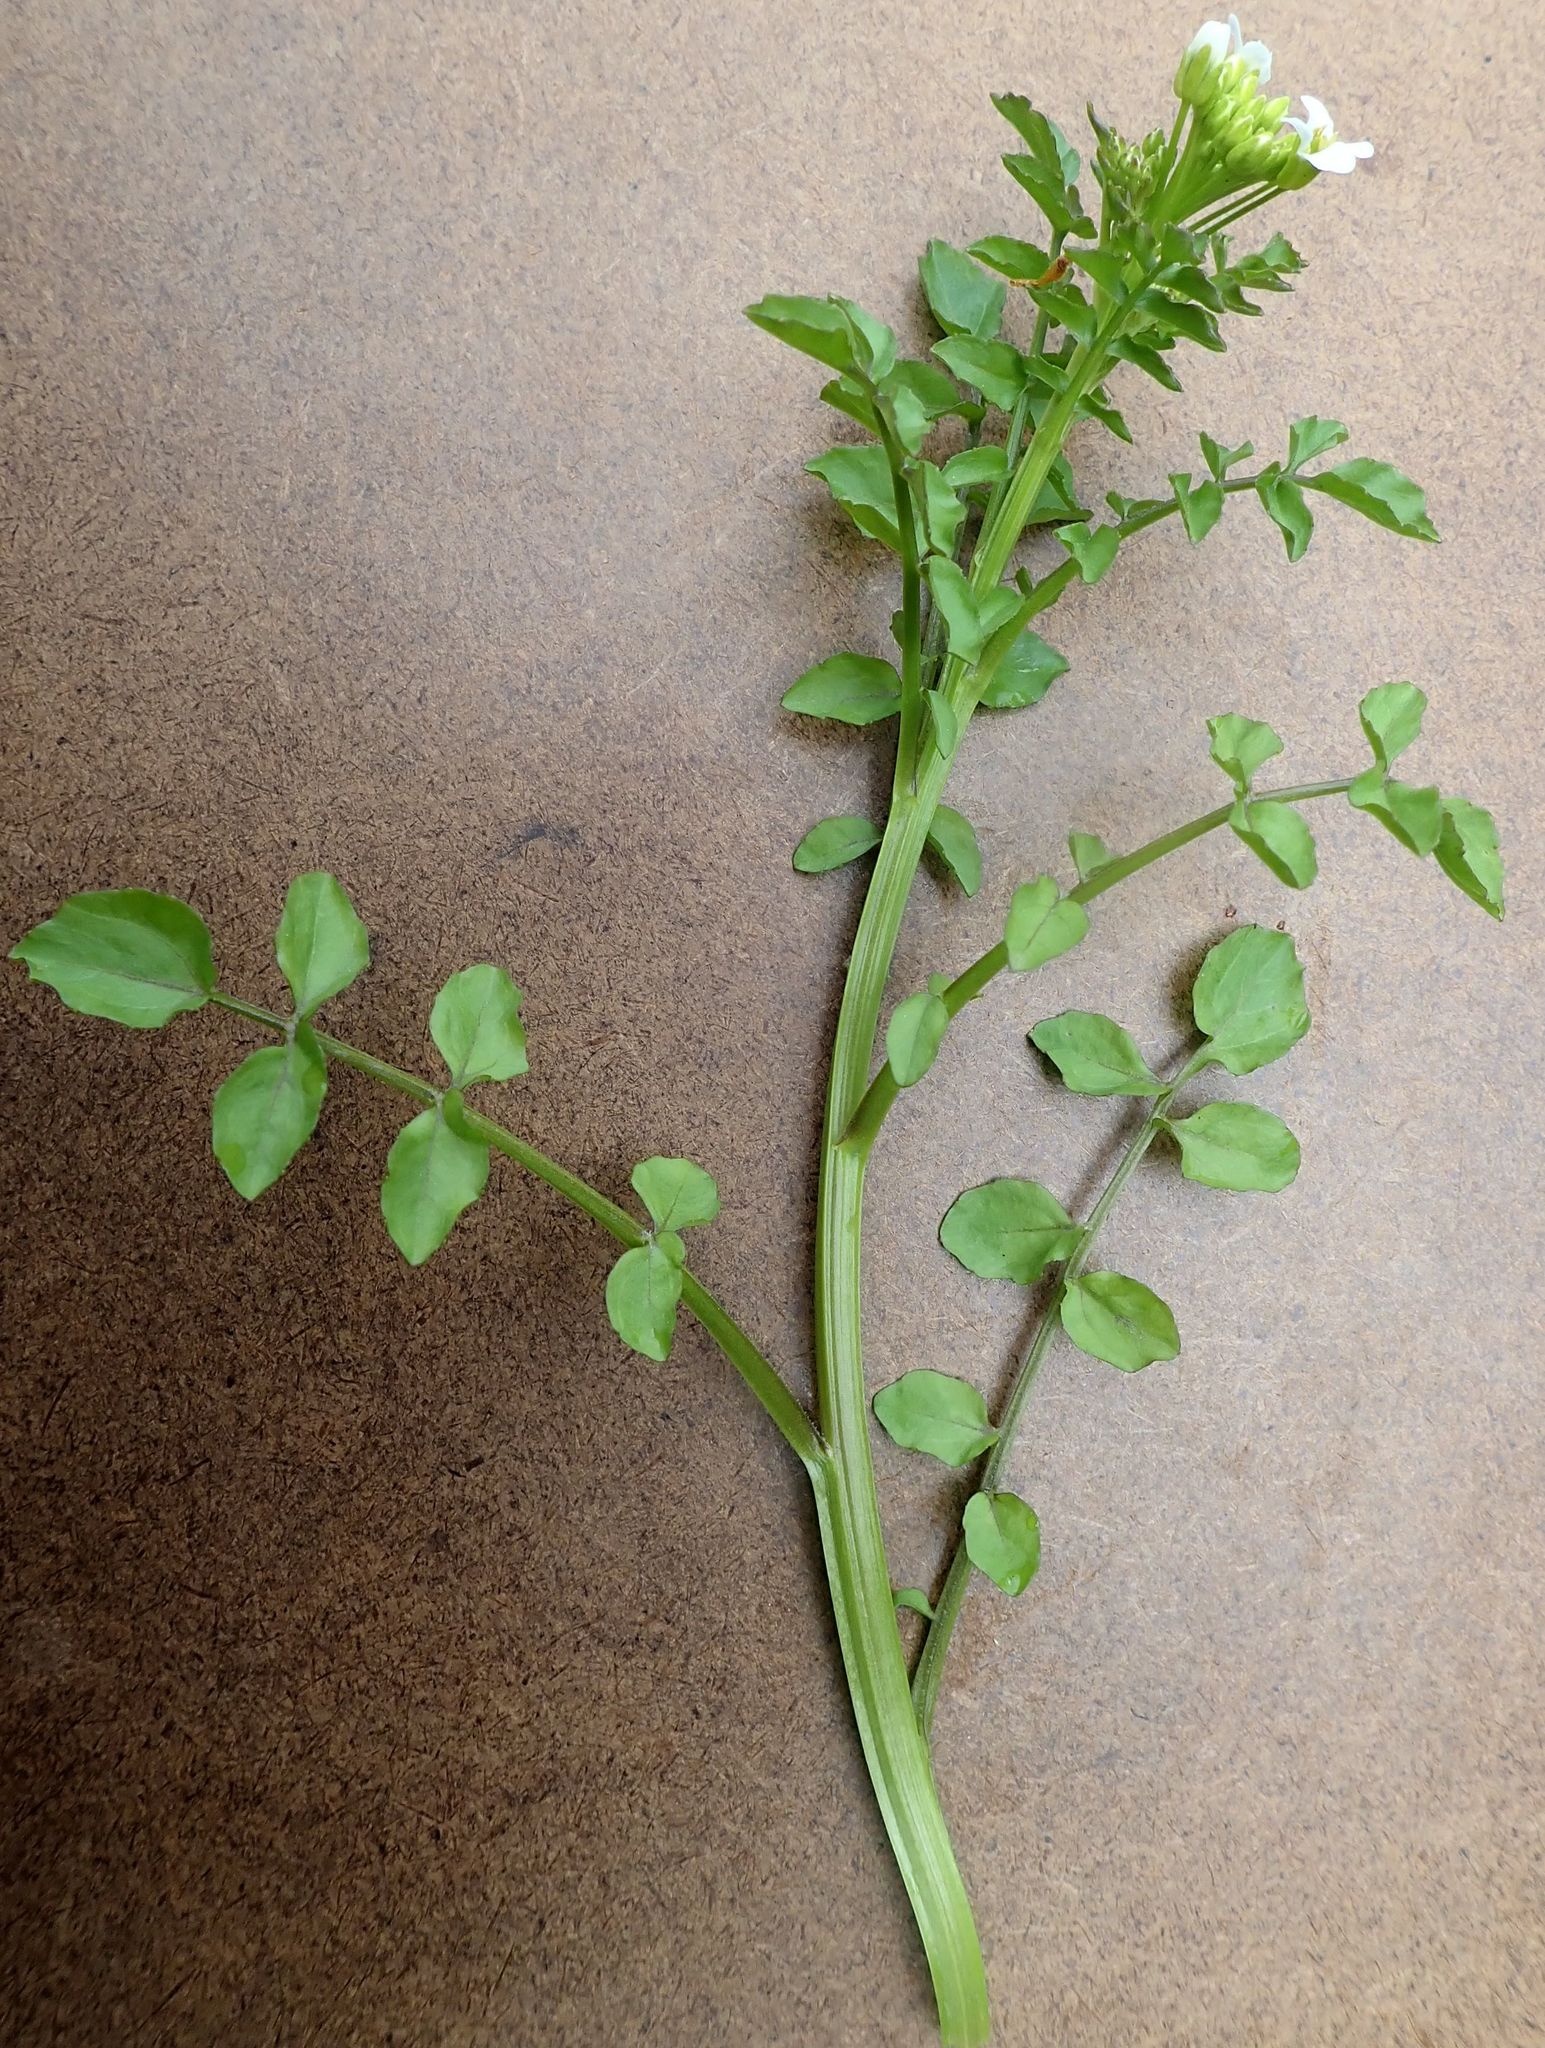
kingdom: Plantae
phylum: Tracheophyta
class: Magnoliopsida
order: Brassicales
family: Brassicaceae
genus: Nasturtium
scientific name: Nasturtium microphyllum
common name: Onerow yellowcress
